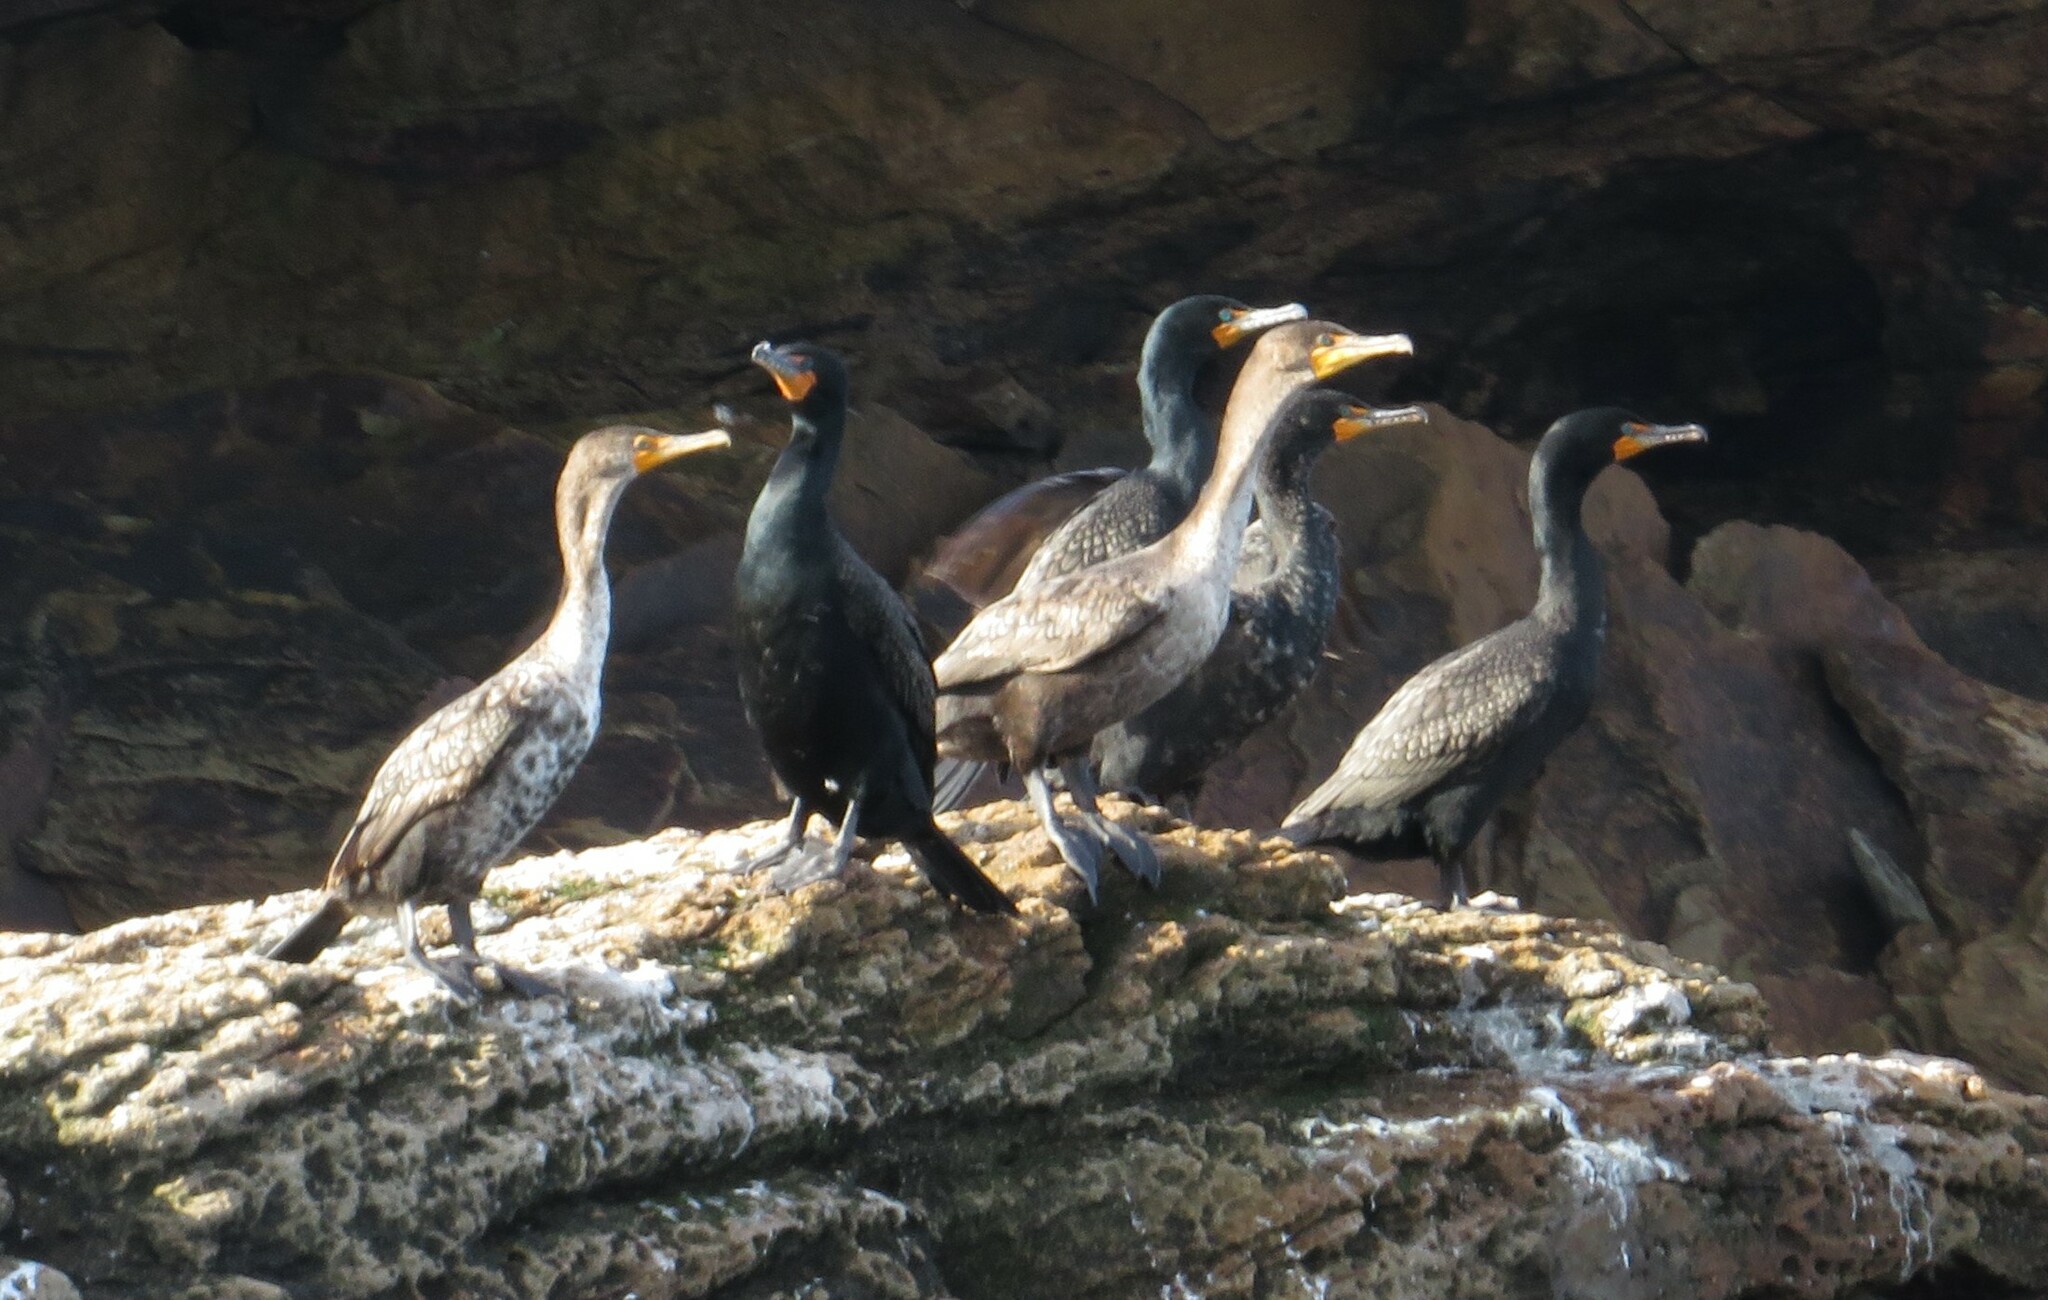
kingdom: Animalia
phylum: Chordata
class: Aves
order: Suliformes
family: Phalacrocoracidae
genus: Phalacrocorax
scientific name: Phalacrocorax auritus
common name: Double-crested cormorant
